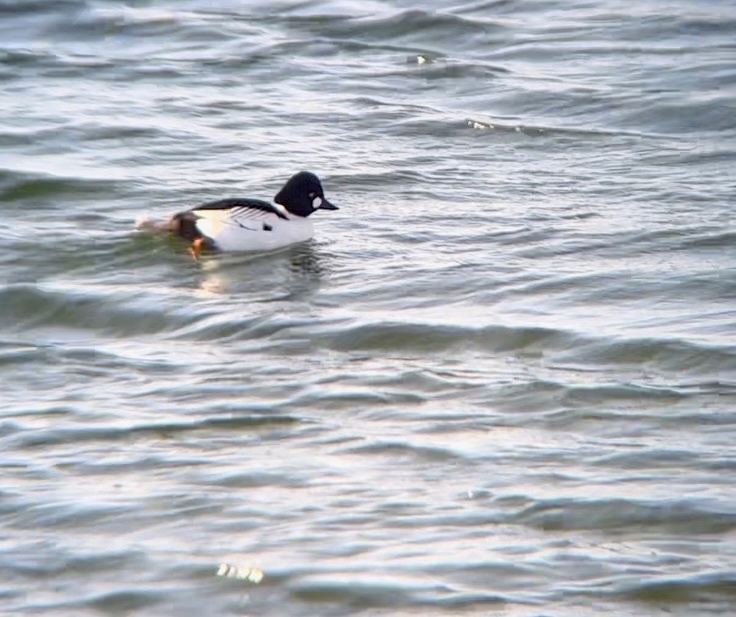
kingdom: Animalia
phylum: Chordata
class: Aves
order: Anseriformes
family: Anatidae
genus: Bucephala
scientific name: Bucephala clangula
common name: Common goldeneye
